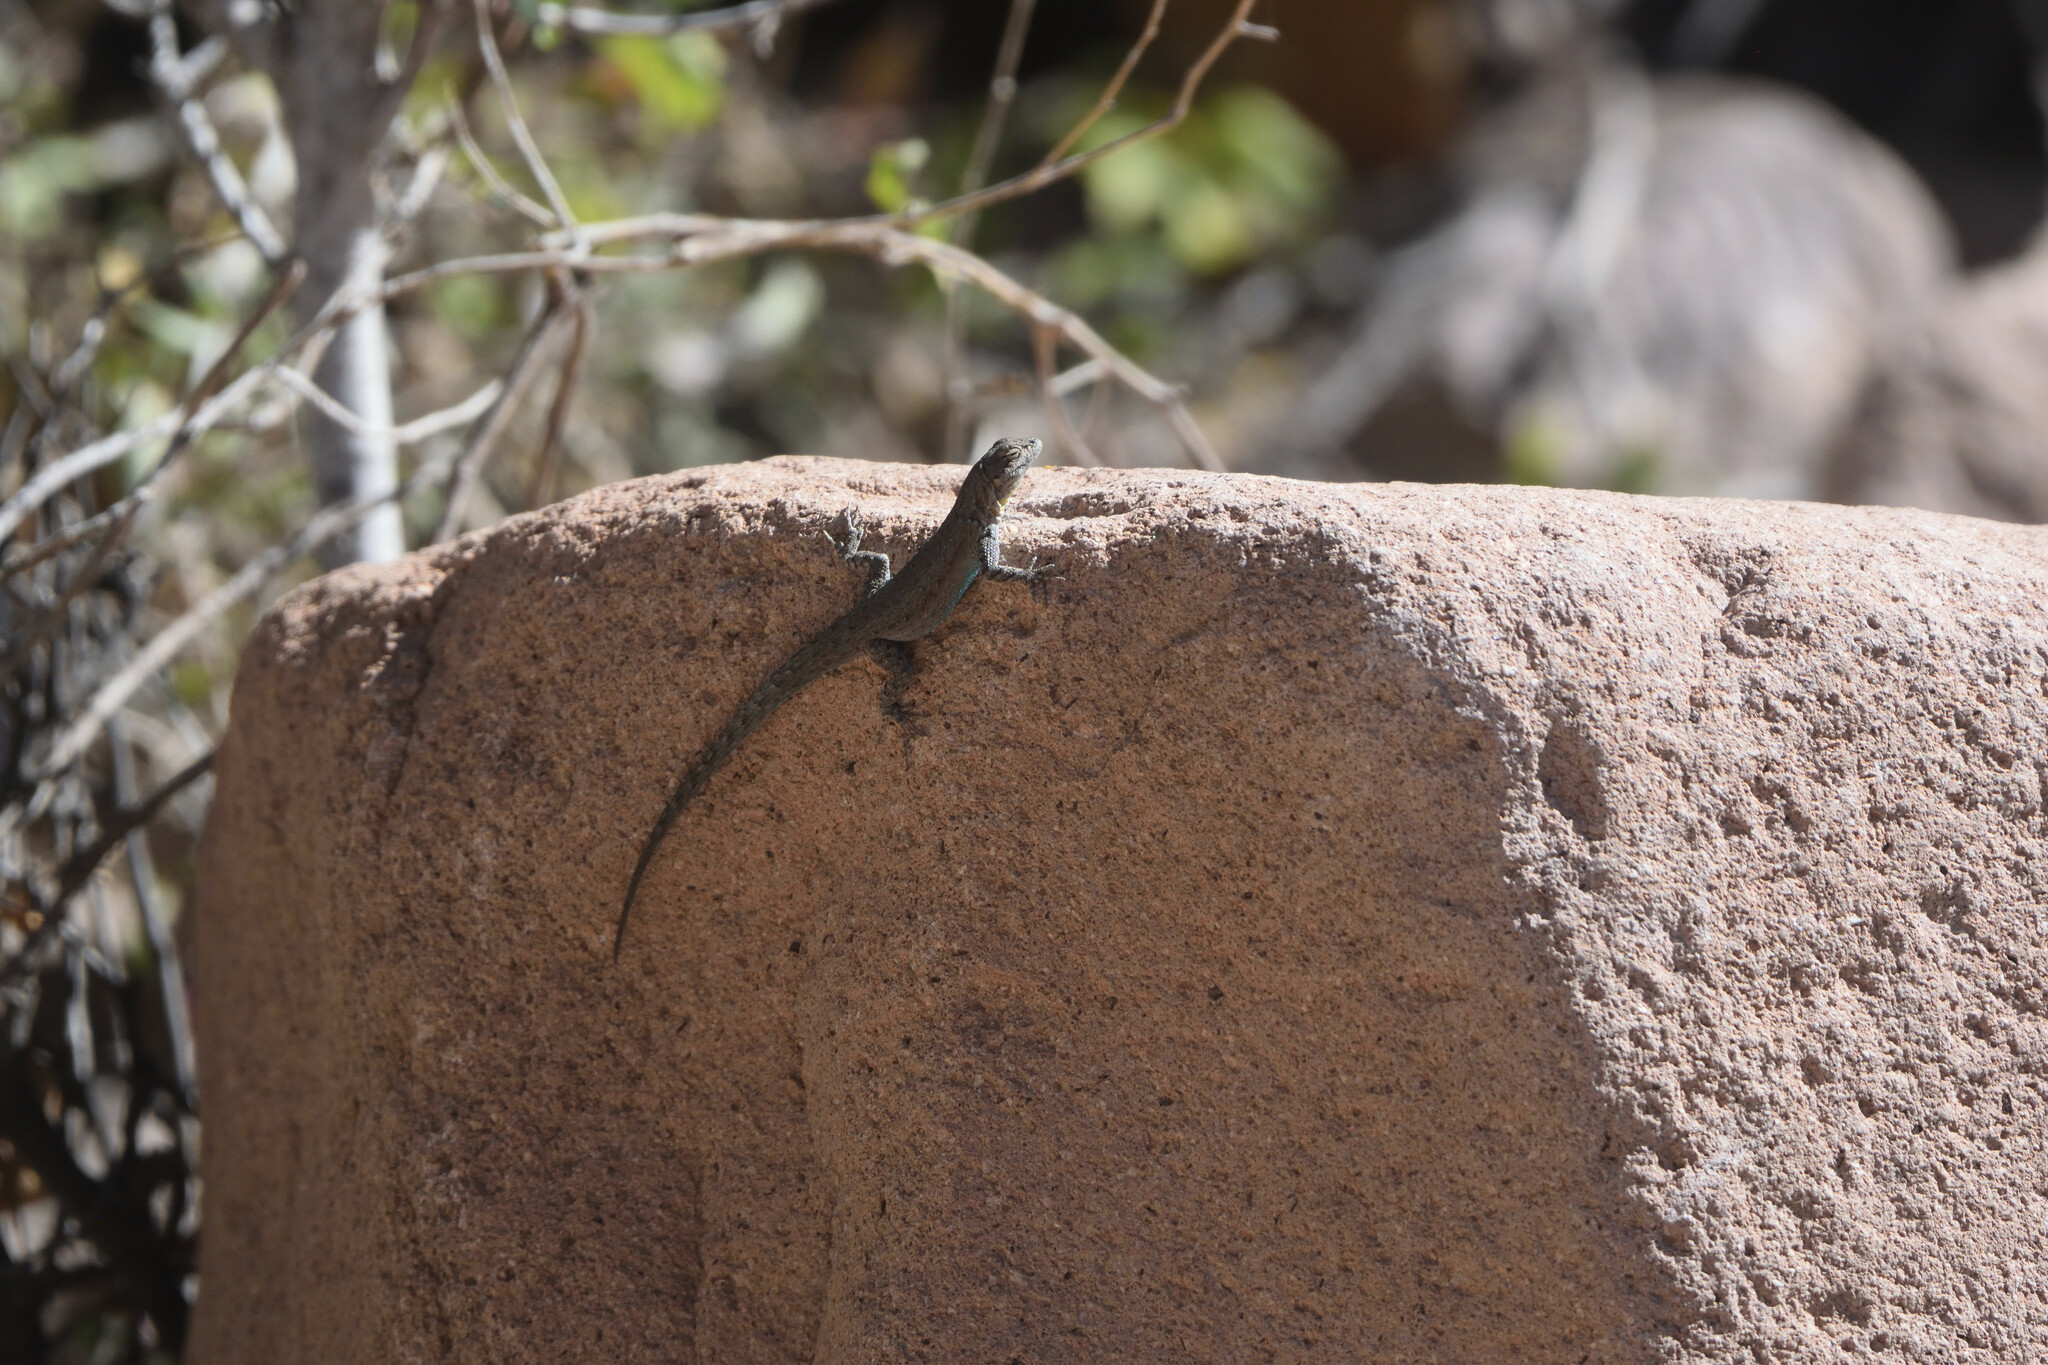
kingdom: Animalia
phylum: Chordata
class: Squamata
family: Phrynosomatidae
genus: Urosaurus
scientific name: Urosaurus nigricauda
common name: Baja california brush lizard
